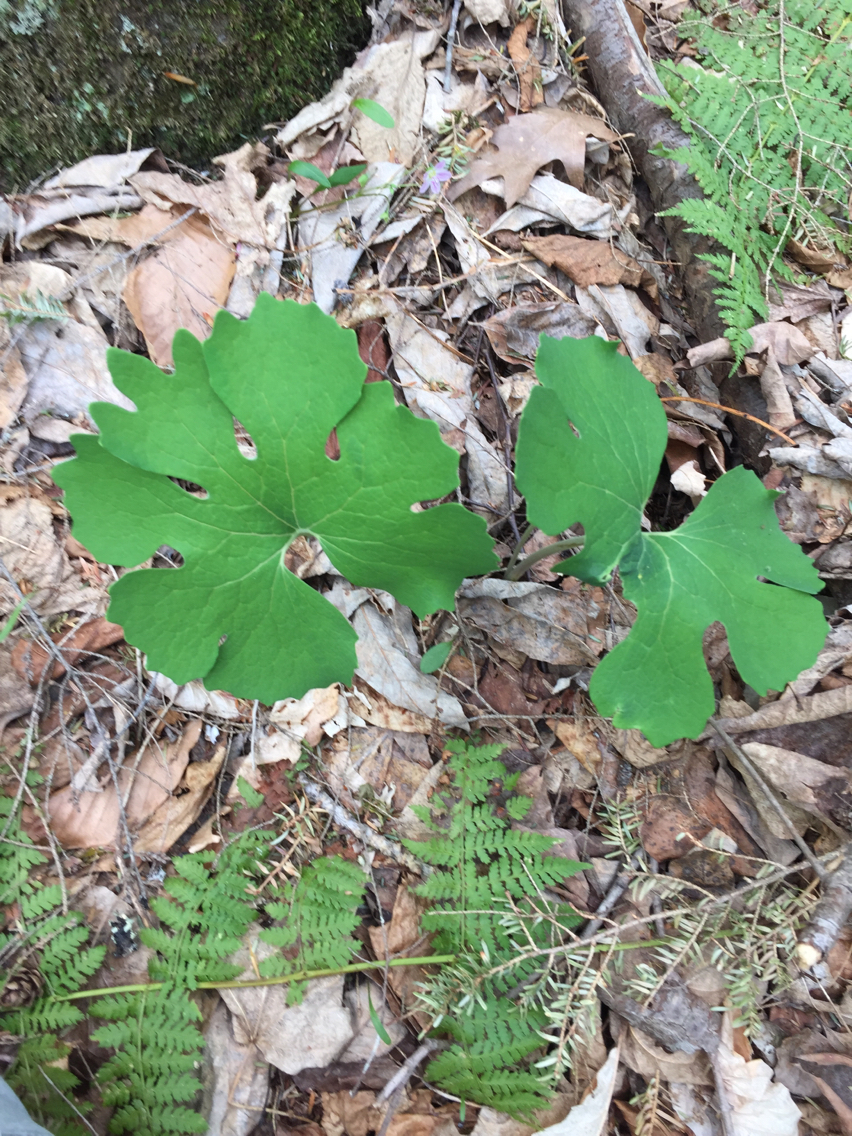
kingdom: Plantae
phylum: Tracheophyta
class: Magnoliopsida
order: Ranunculales
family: Papaveraceae
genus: Sanguinaria
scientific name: Sanguinaria canadensis
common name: Bloodroot
